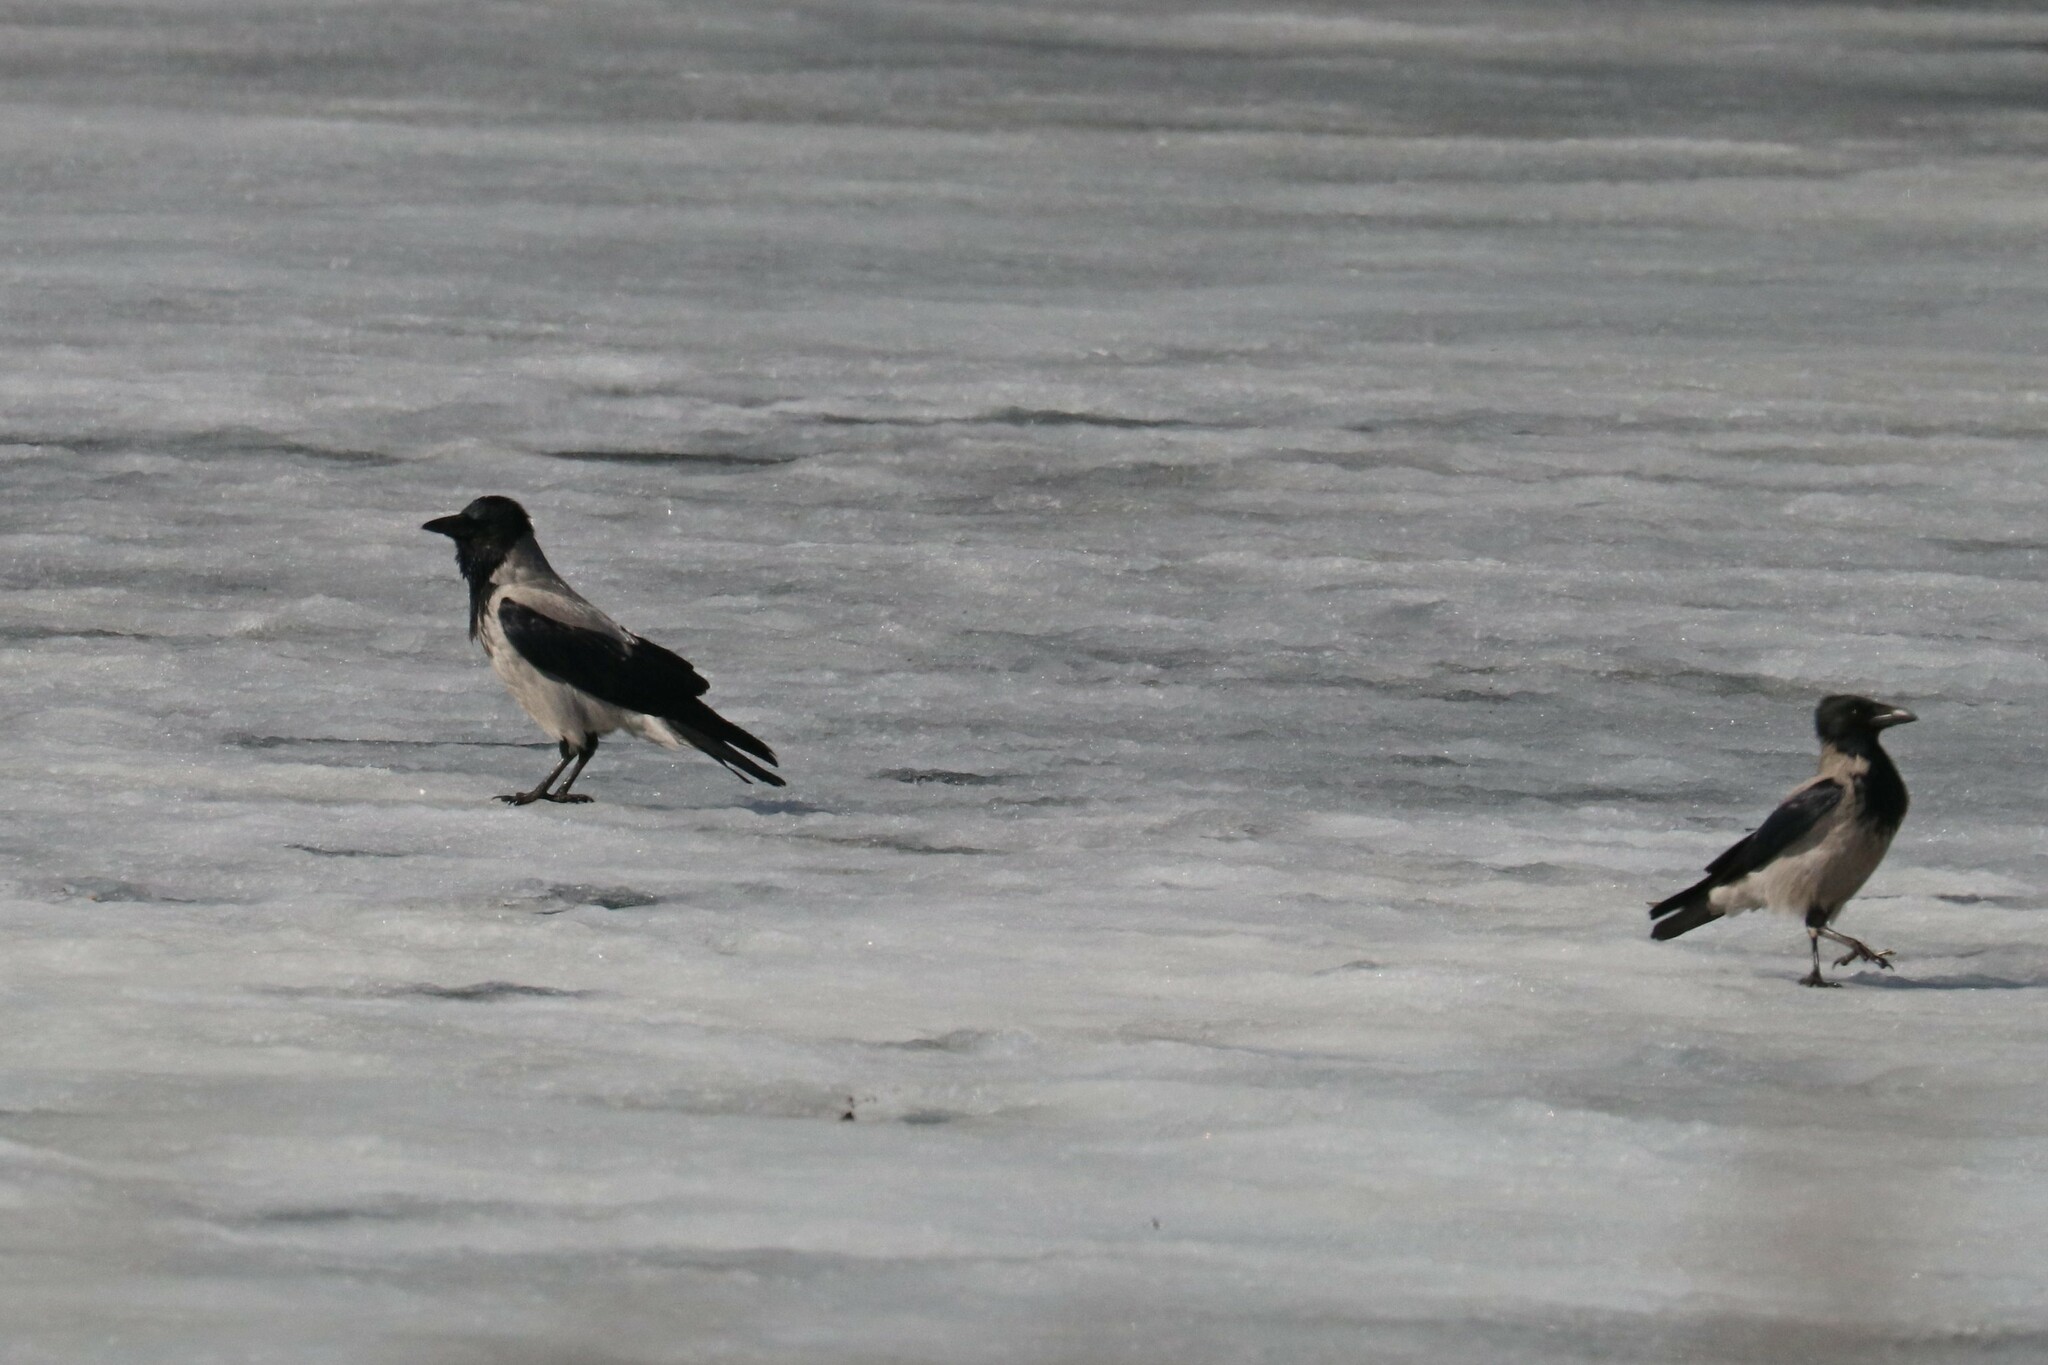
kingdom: Animalia
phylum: Chordata
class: Aves
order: Passeriformes
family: Corvidae
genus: Corvus
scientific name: Corvus cornix
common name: Hooded crow
